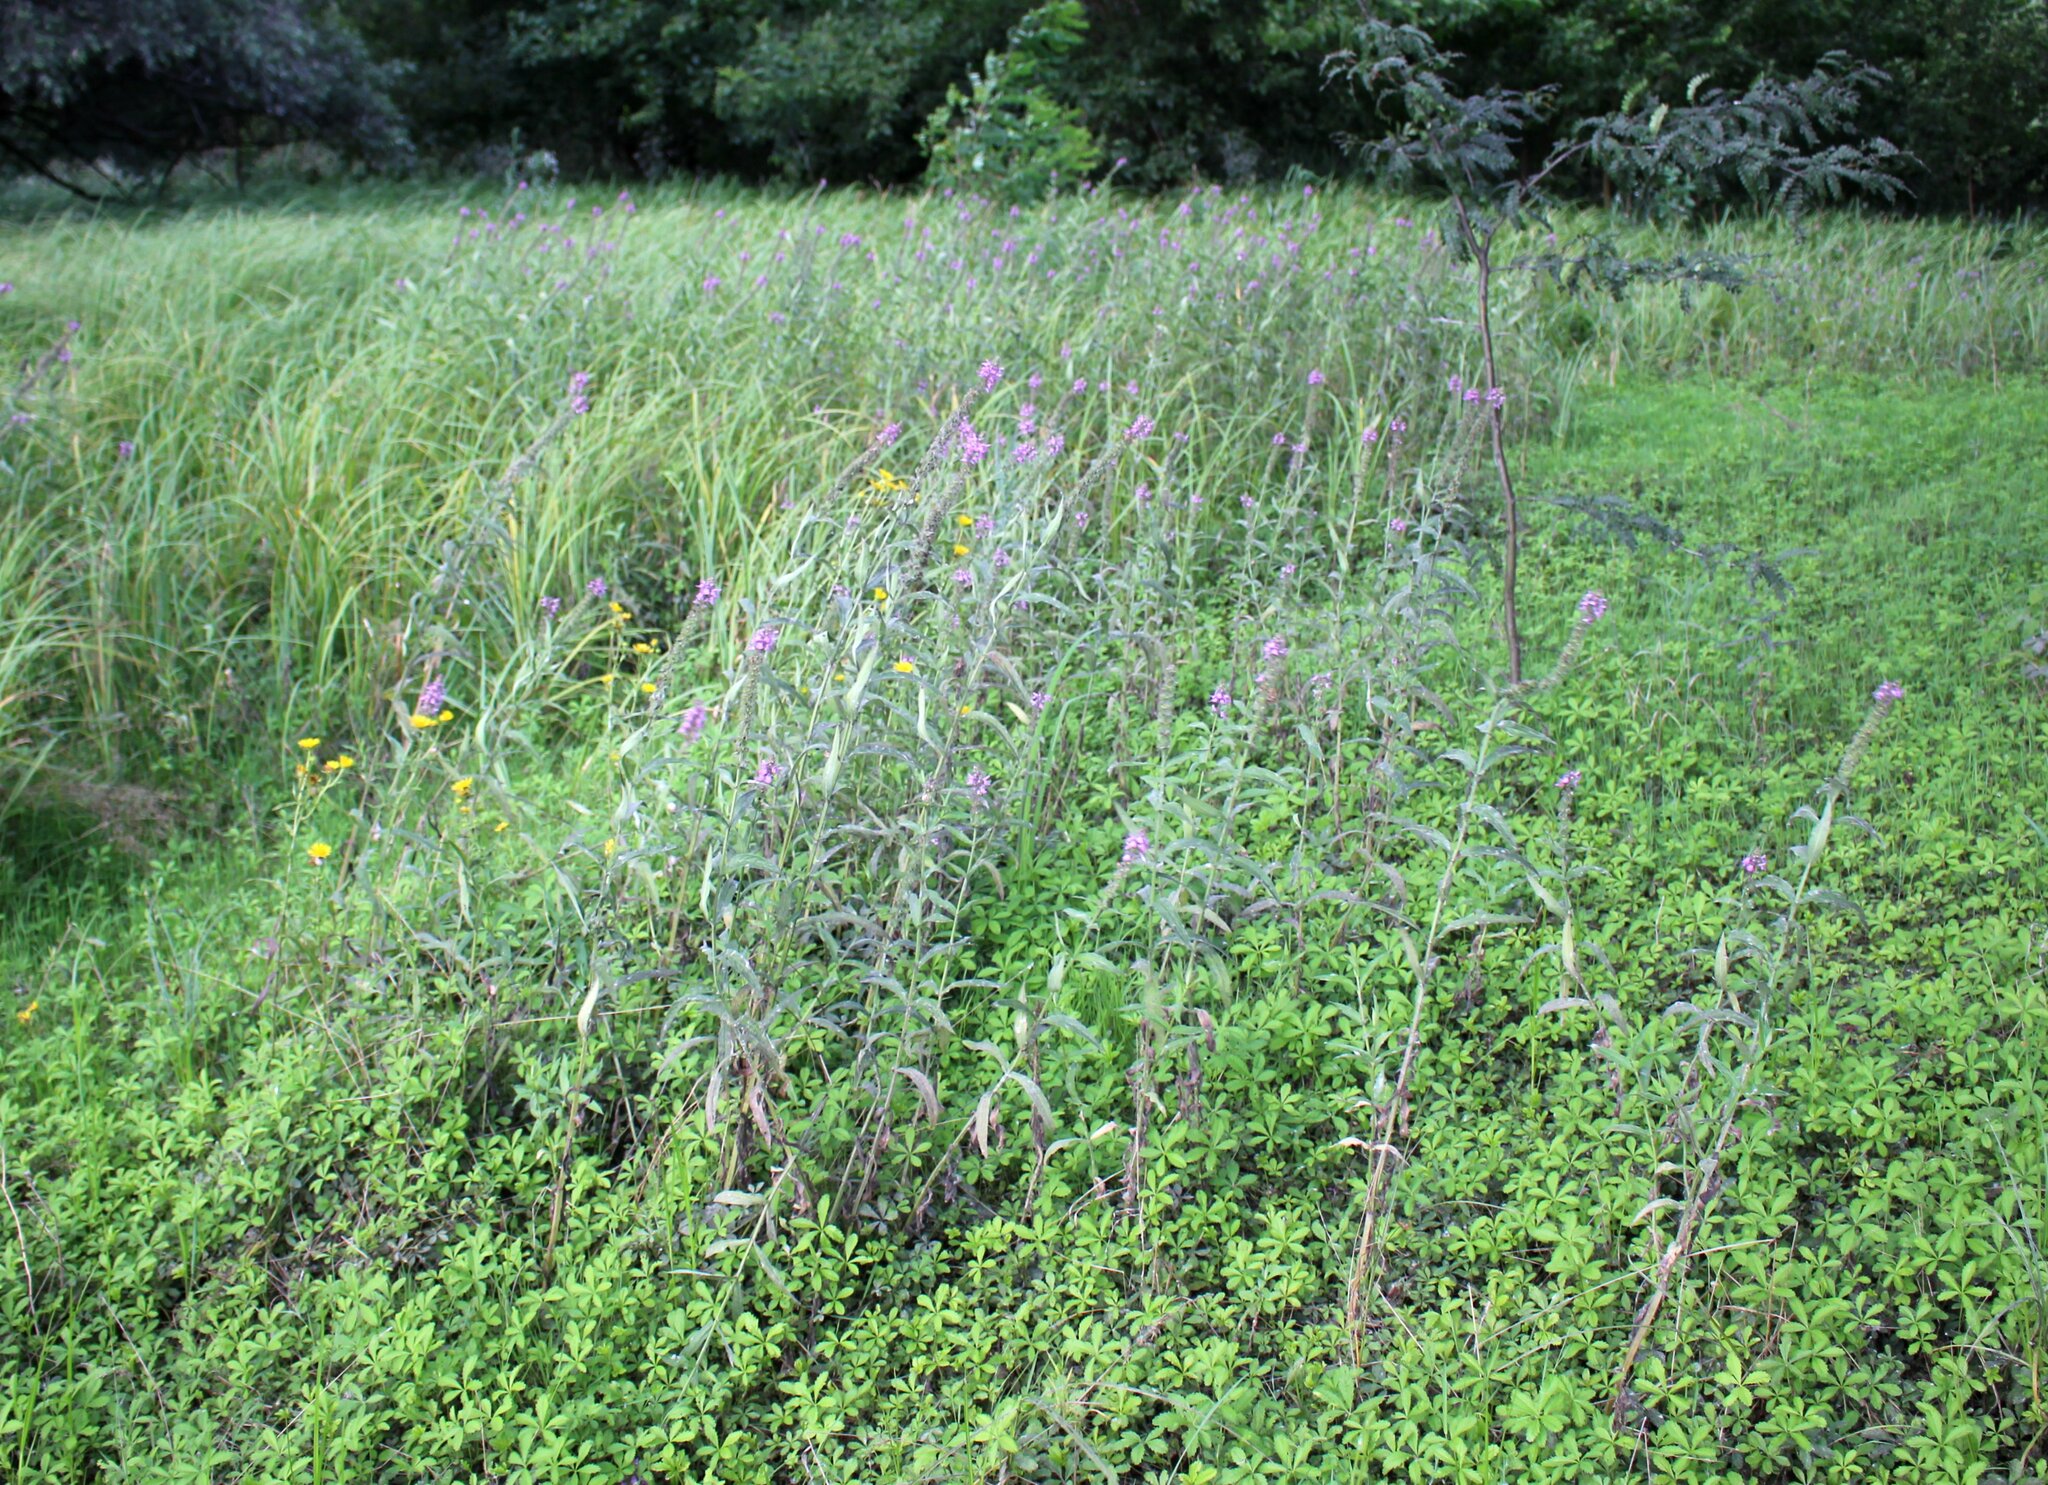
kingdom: Plantae
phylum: Tracheophyta
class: Magnoliopsida
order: Lamiales
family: Lamiaceae
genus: Stachys
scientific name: Stachys palustris
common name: Marsh woundwort
